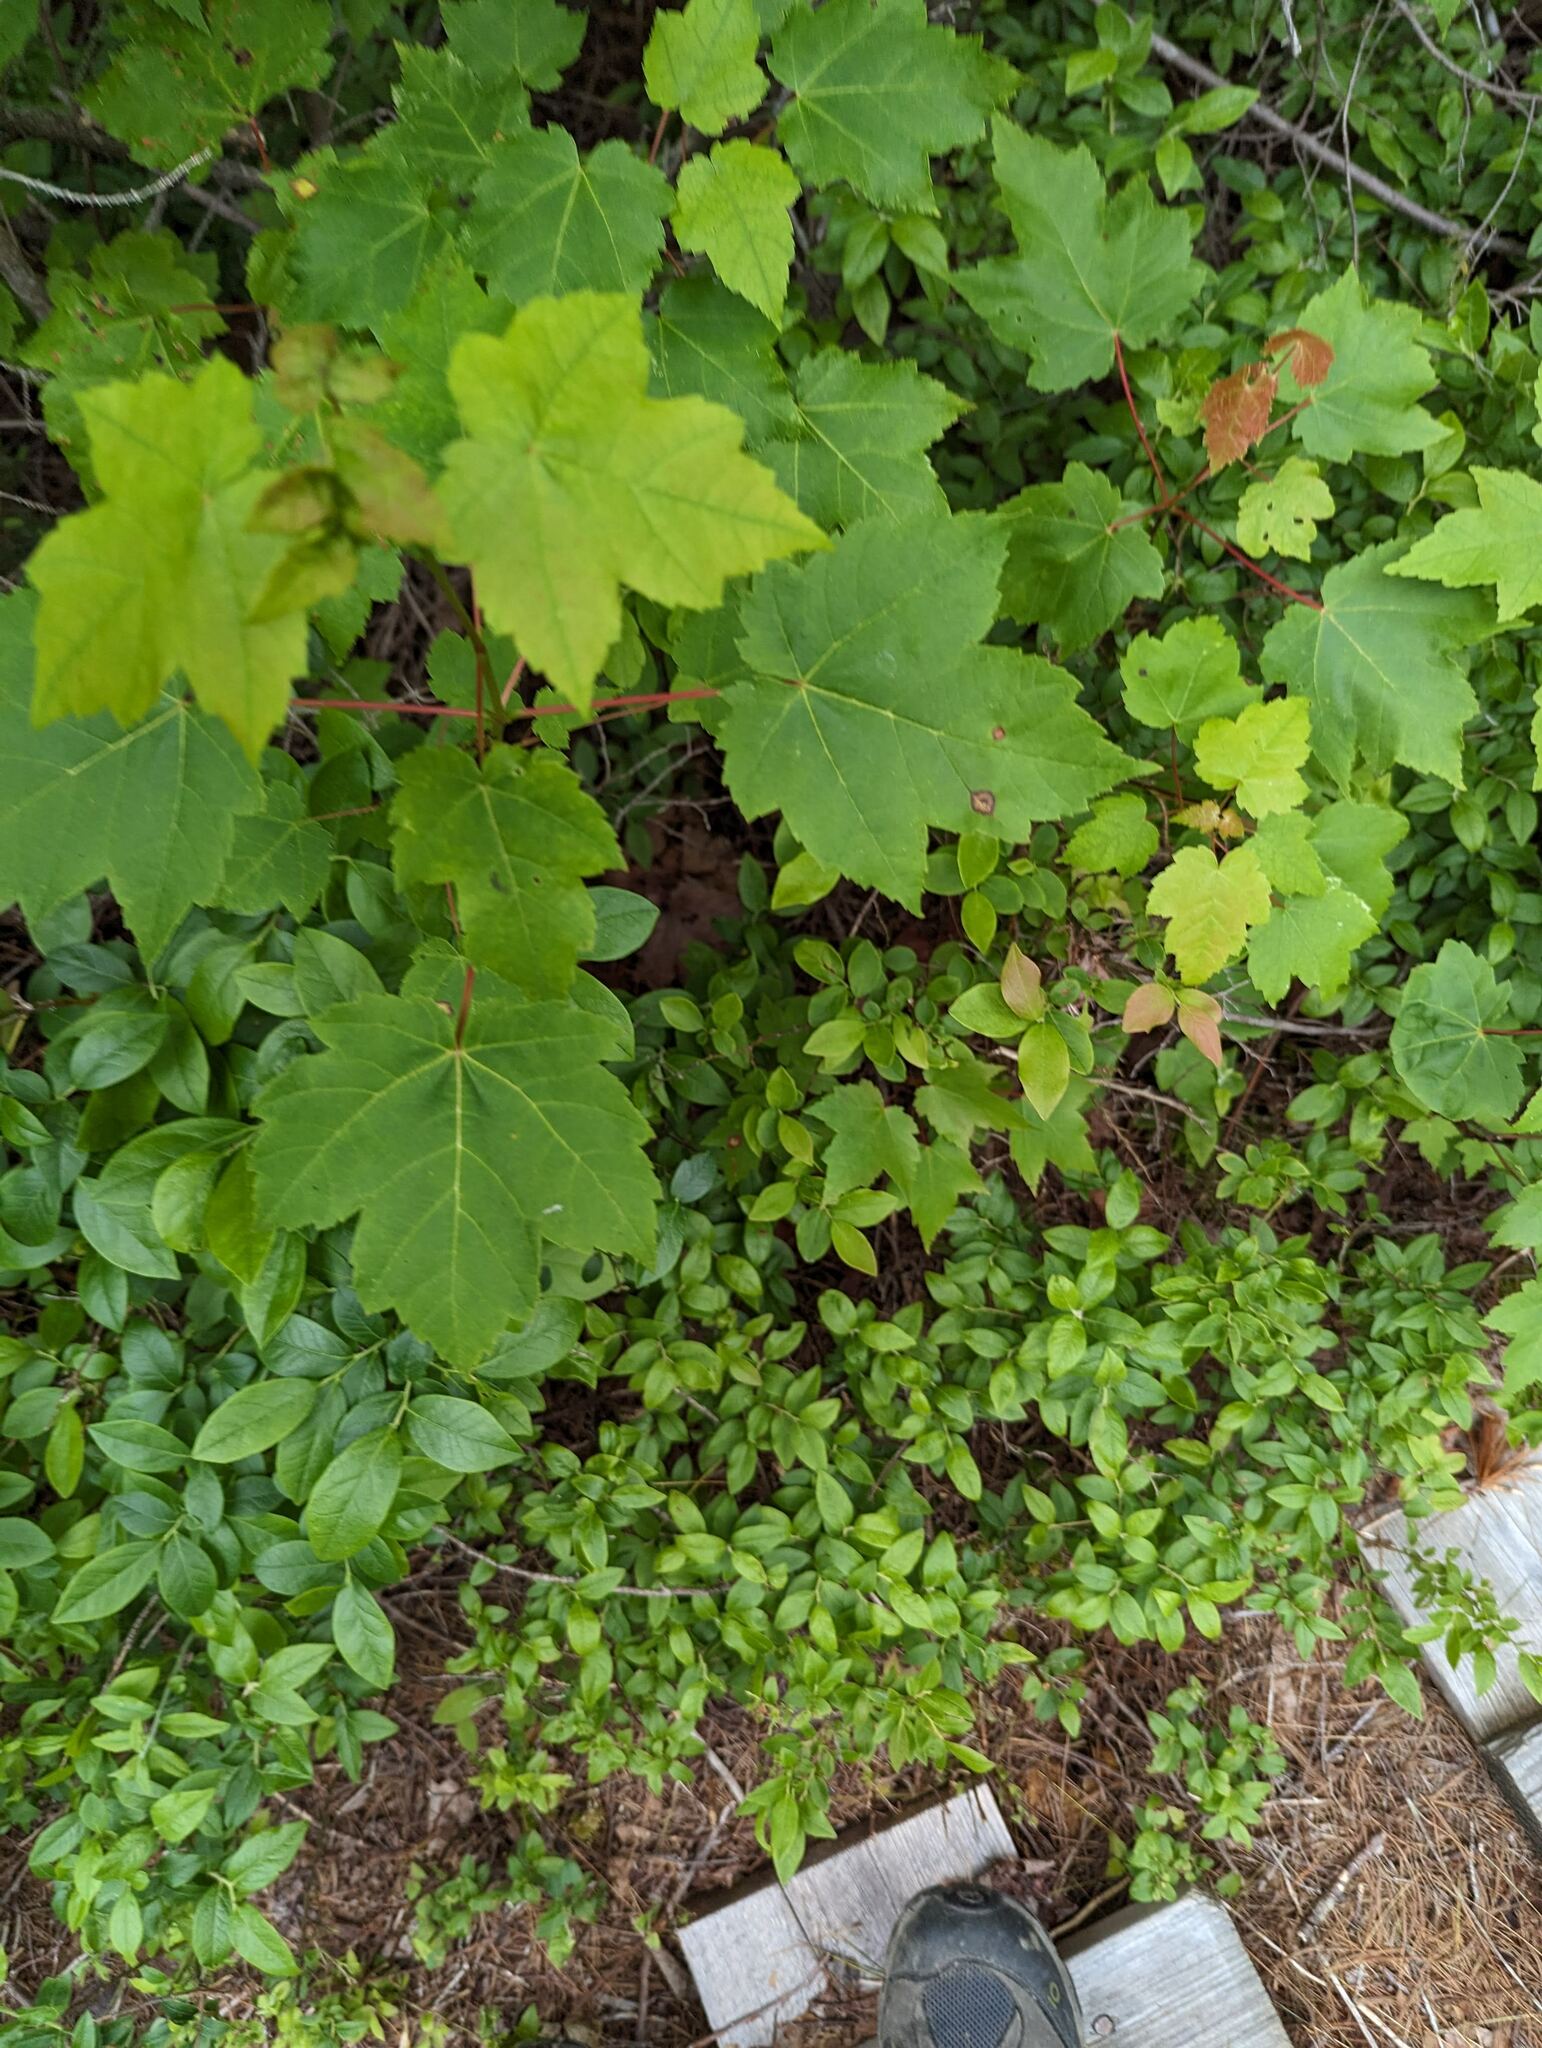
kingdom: Plantae
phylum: Tracheophyta
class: Magnoliopsida
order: Sapindales
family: Sapindaceae
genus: Acer
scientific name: Acer rubrum
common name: Red maple
